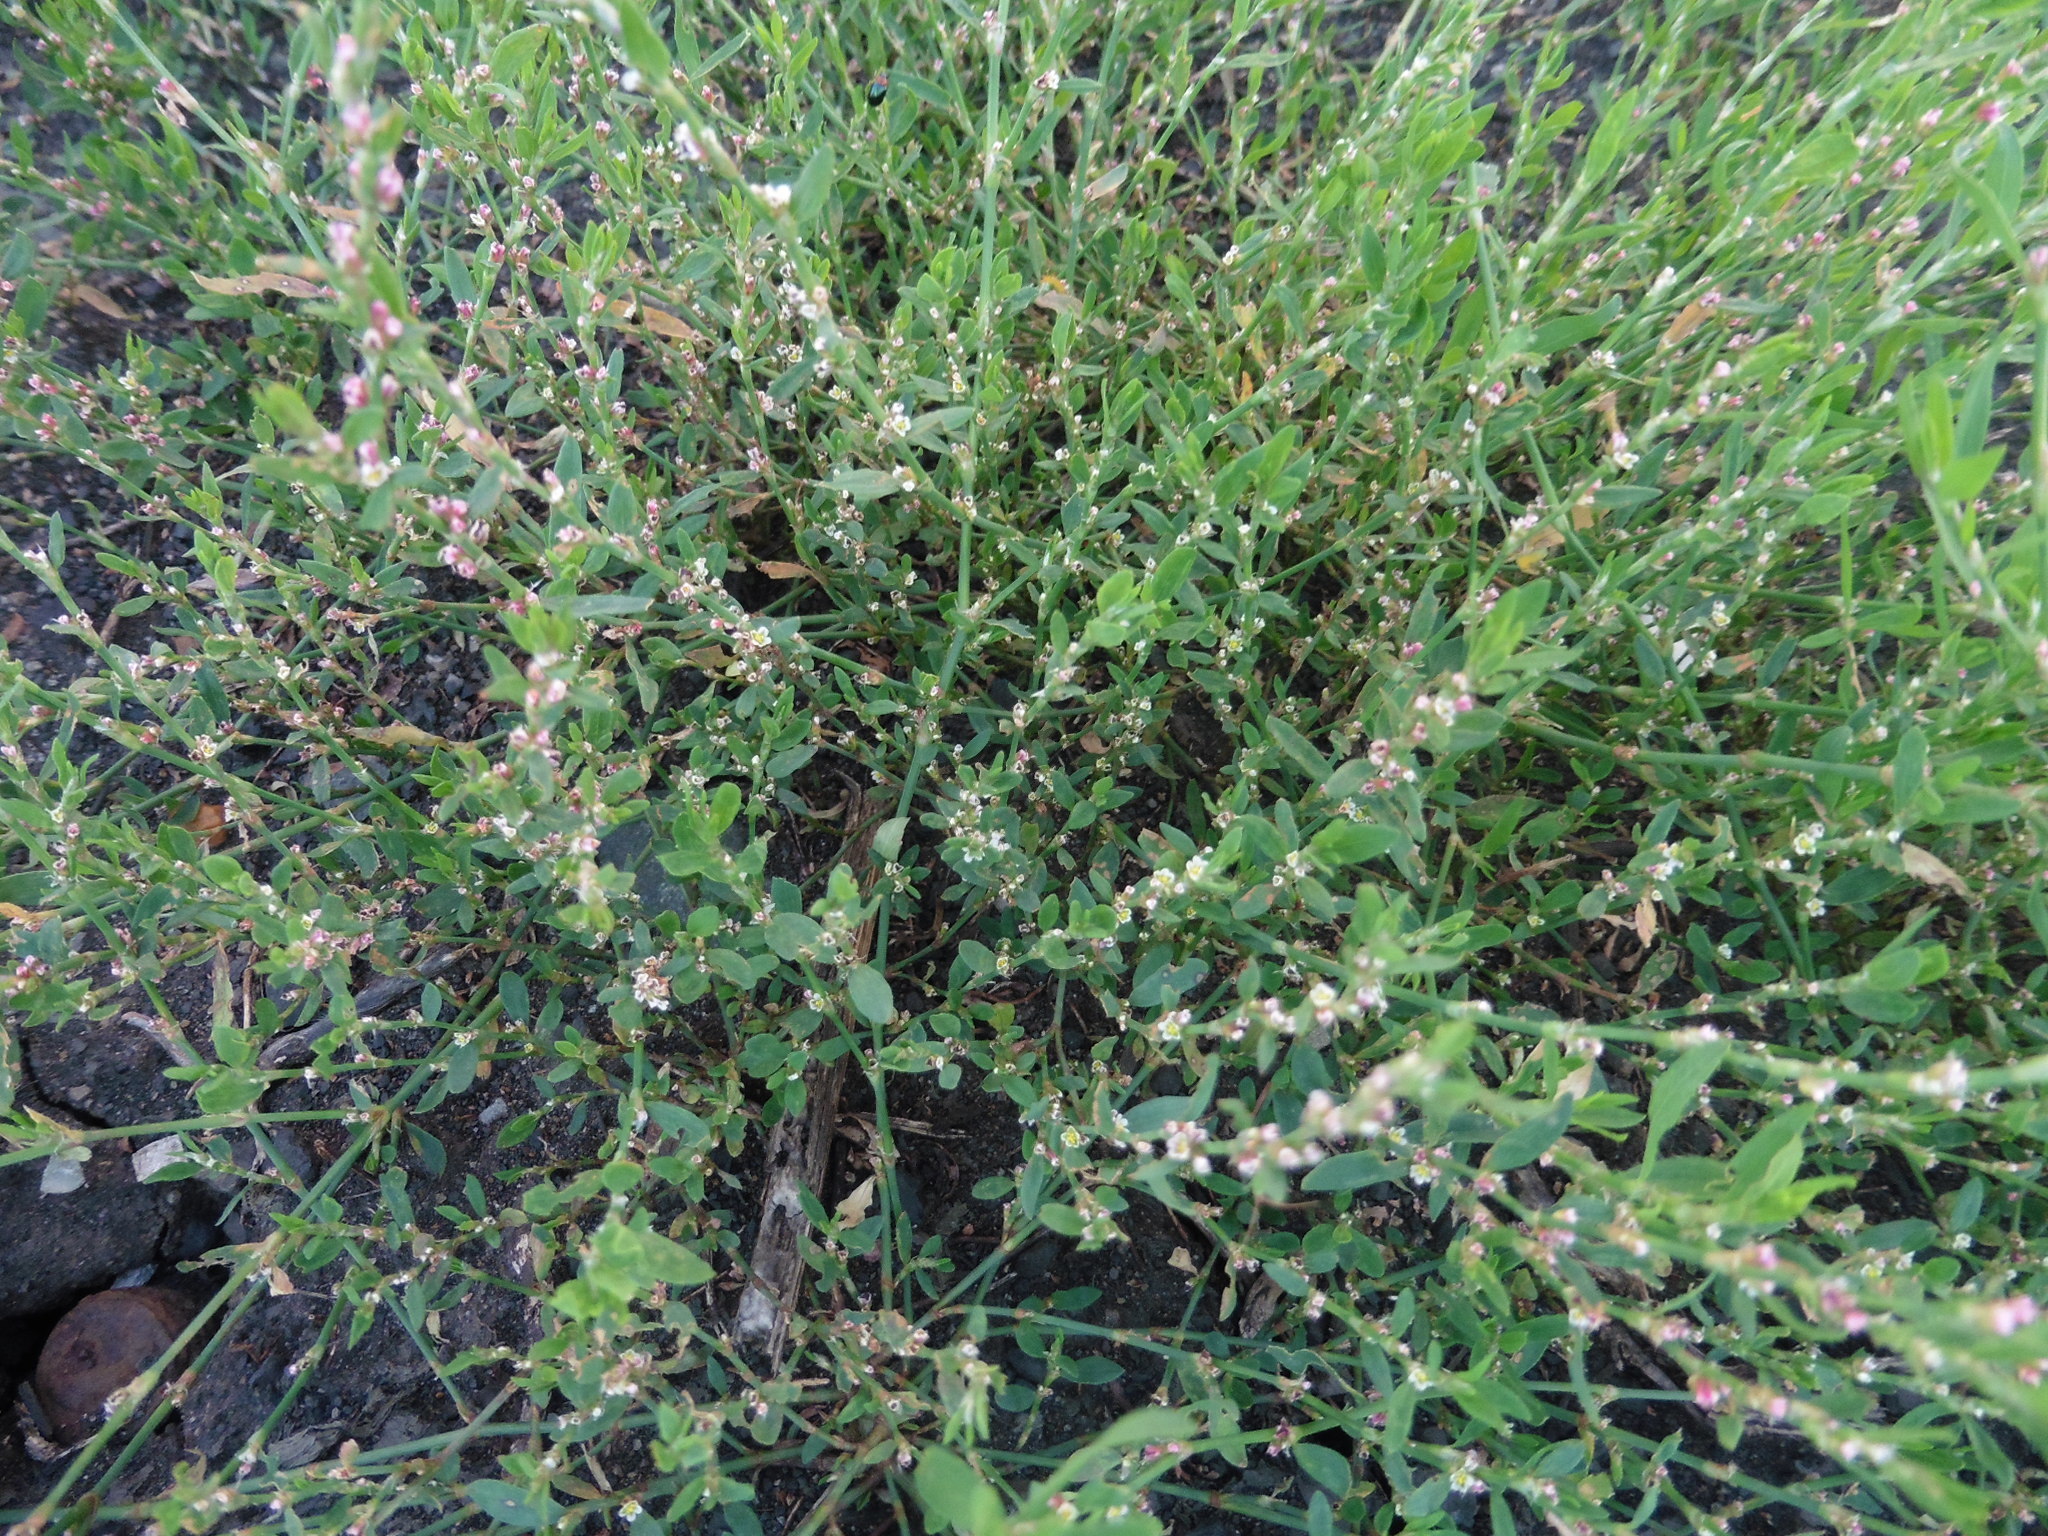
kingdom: Plantae
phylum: Tracheophyta
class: Magnoliopsida
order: Caryophyllales
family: Polygonaceae
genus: Polygonum
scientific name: Polygonum aviculare
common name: Prostrate knotweed
